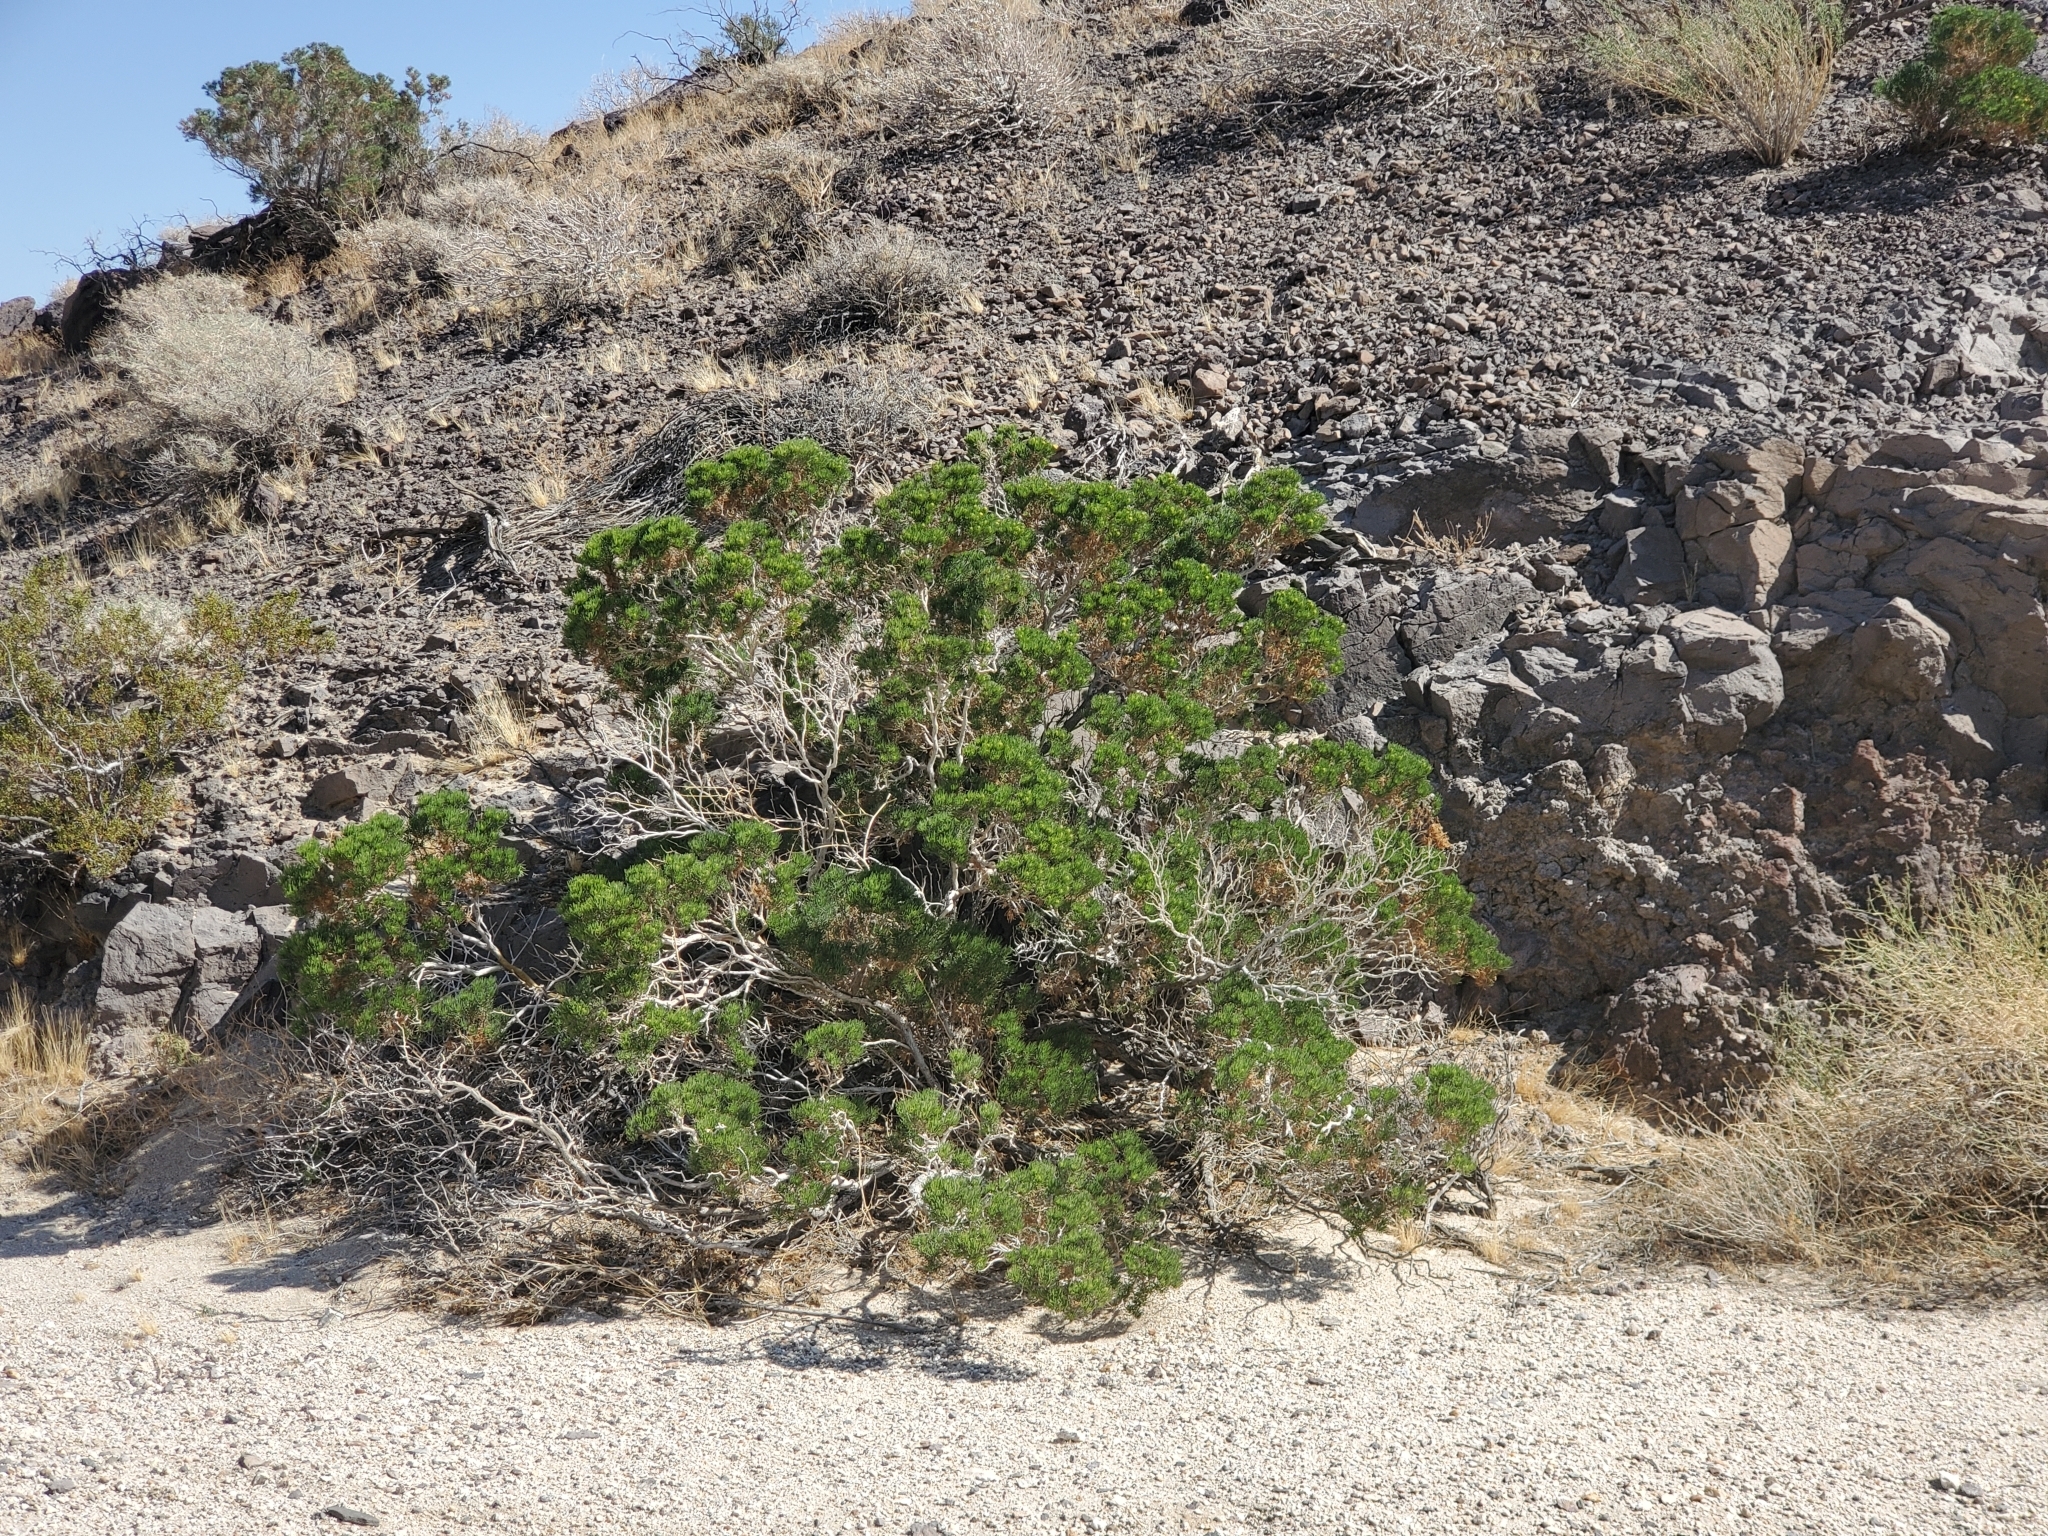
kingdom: Plantae
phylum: Tracheophyta
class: Magnoliopsida
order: Asterales
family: Asteraceae
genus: Peucephyllum
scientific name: Peucephyllum schottii
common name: Pygmy-cedar
